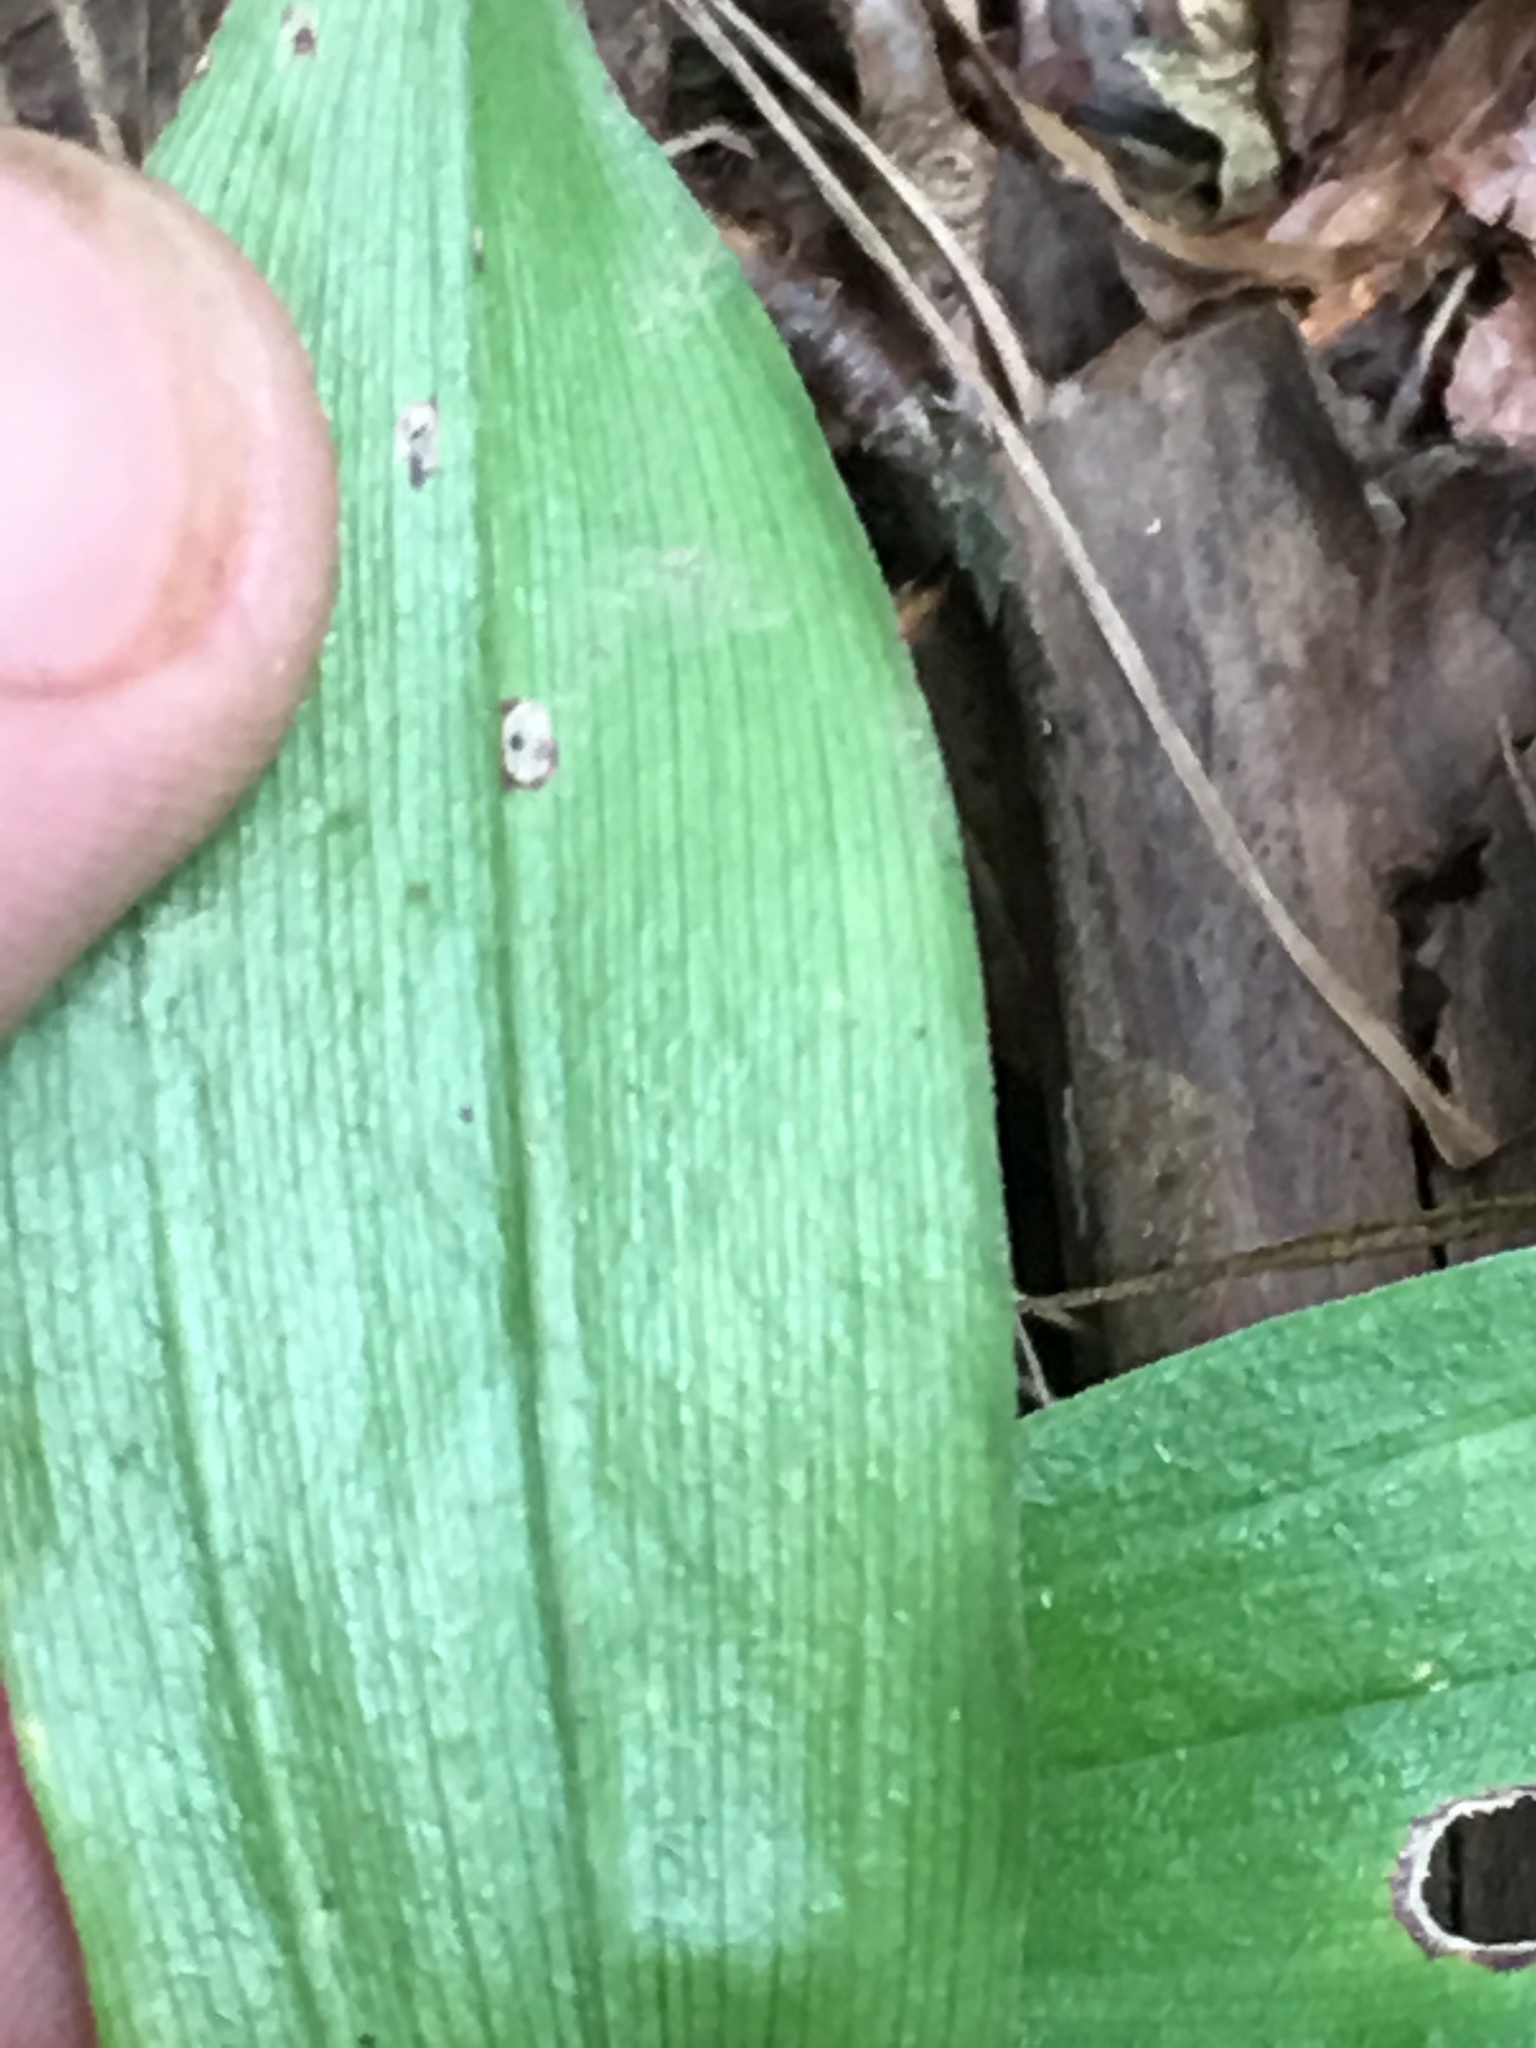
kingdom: Plantae
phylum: Tracheophyta
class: Liliopsida
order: Asparagales
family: Asparagaceae
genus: Maianthemum
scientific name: Maianthemum racemosum
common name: False spikenard
